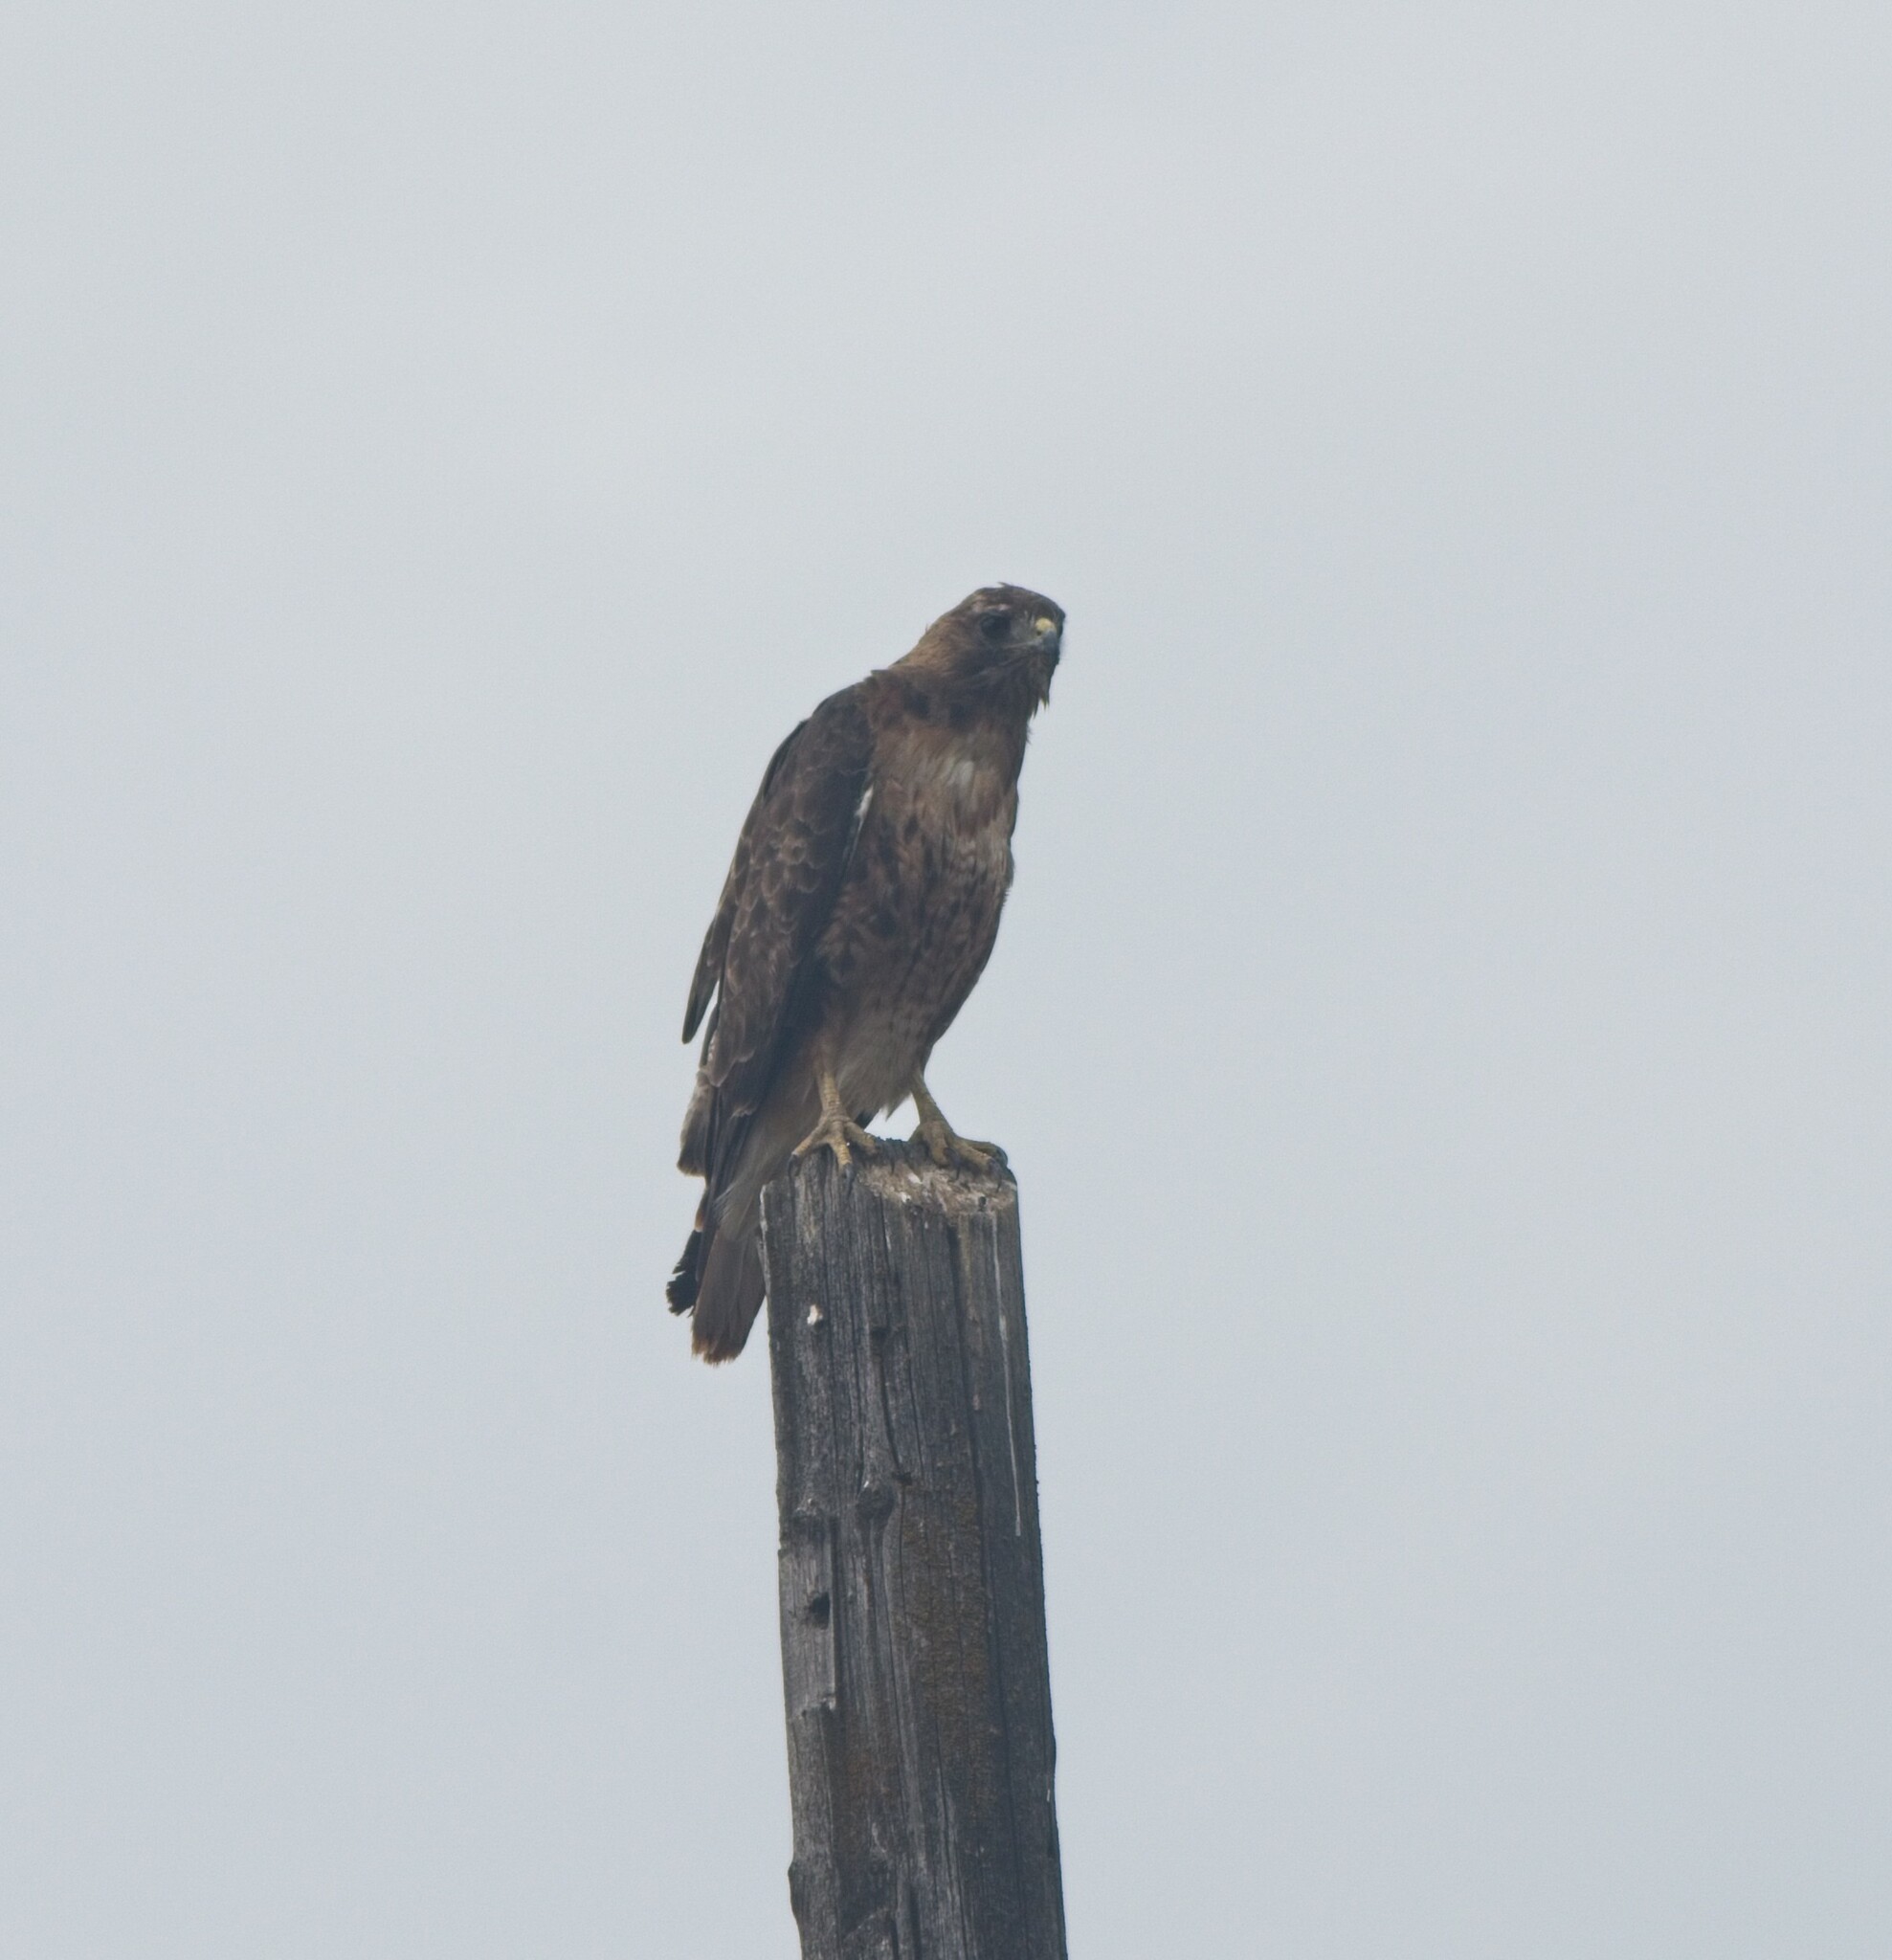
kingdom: Animalia
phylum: Chordata
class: Aves
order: Accipitriformes
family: Accipitridae
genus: Buteo
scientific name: Buteo jamaicensis
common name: Red-tailed hawk
